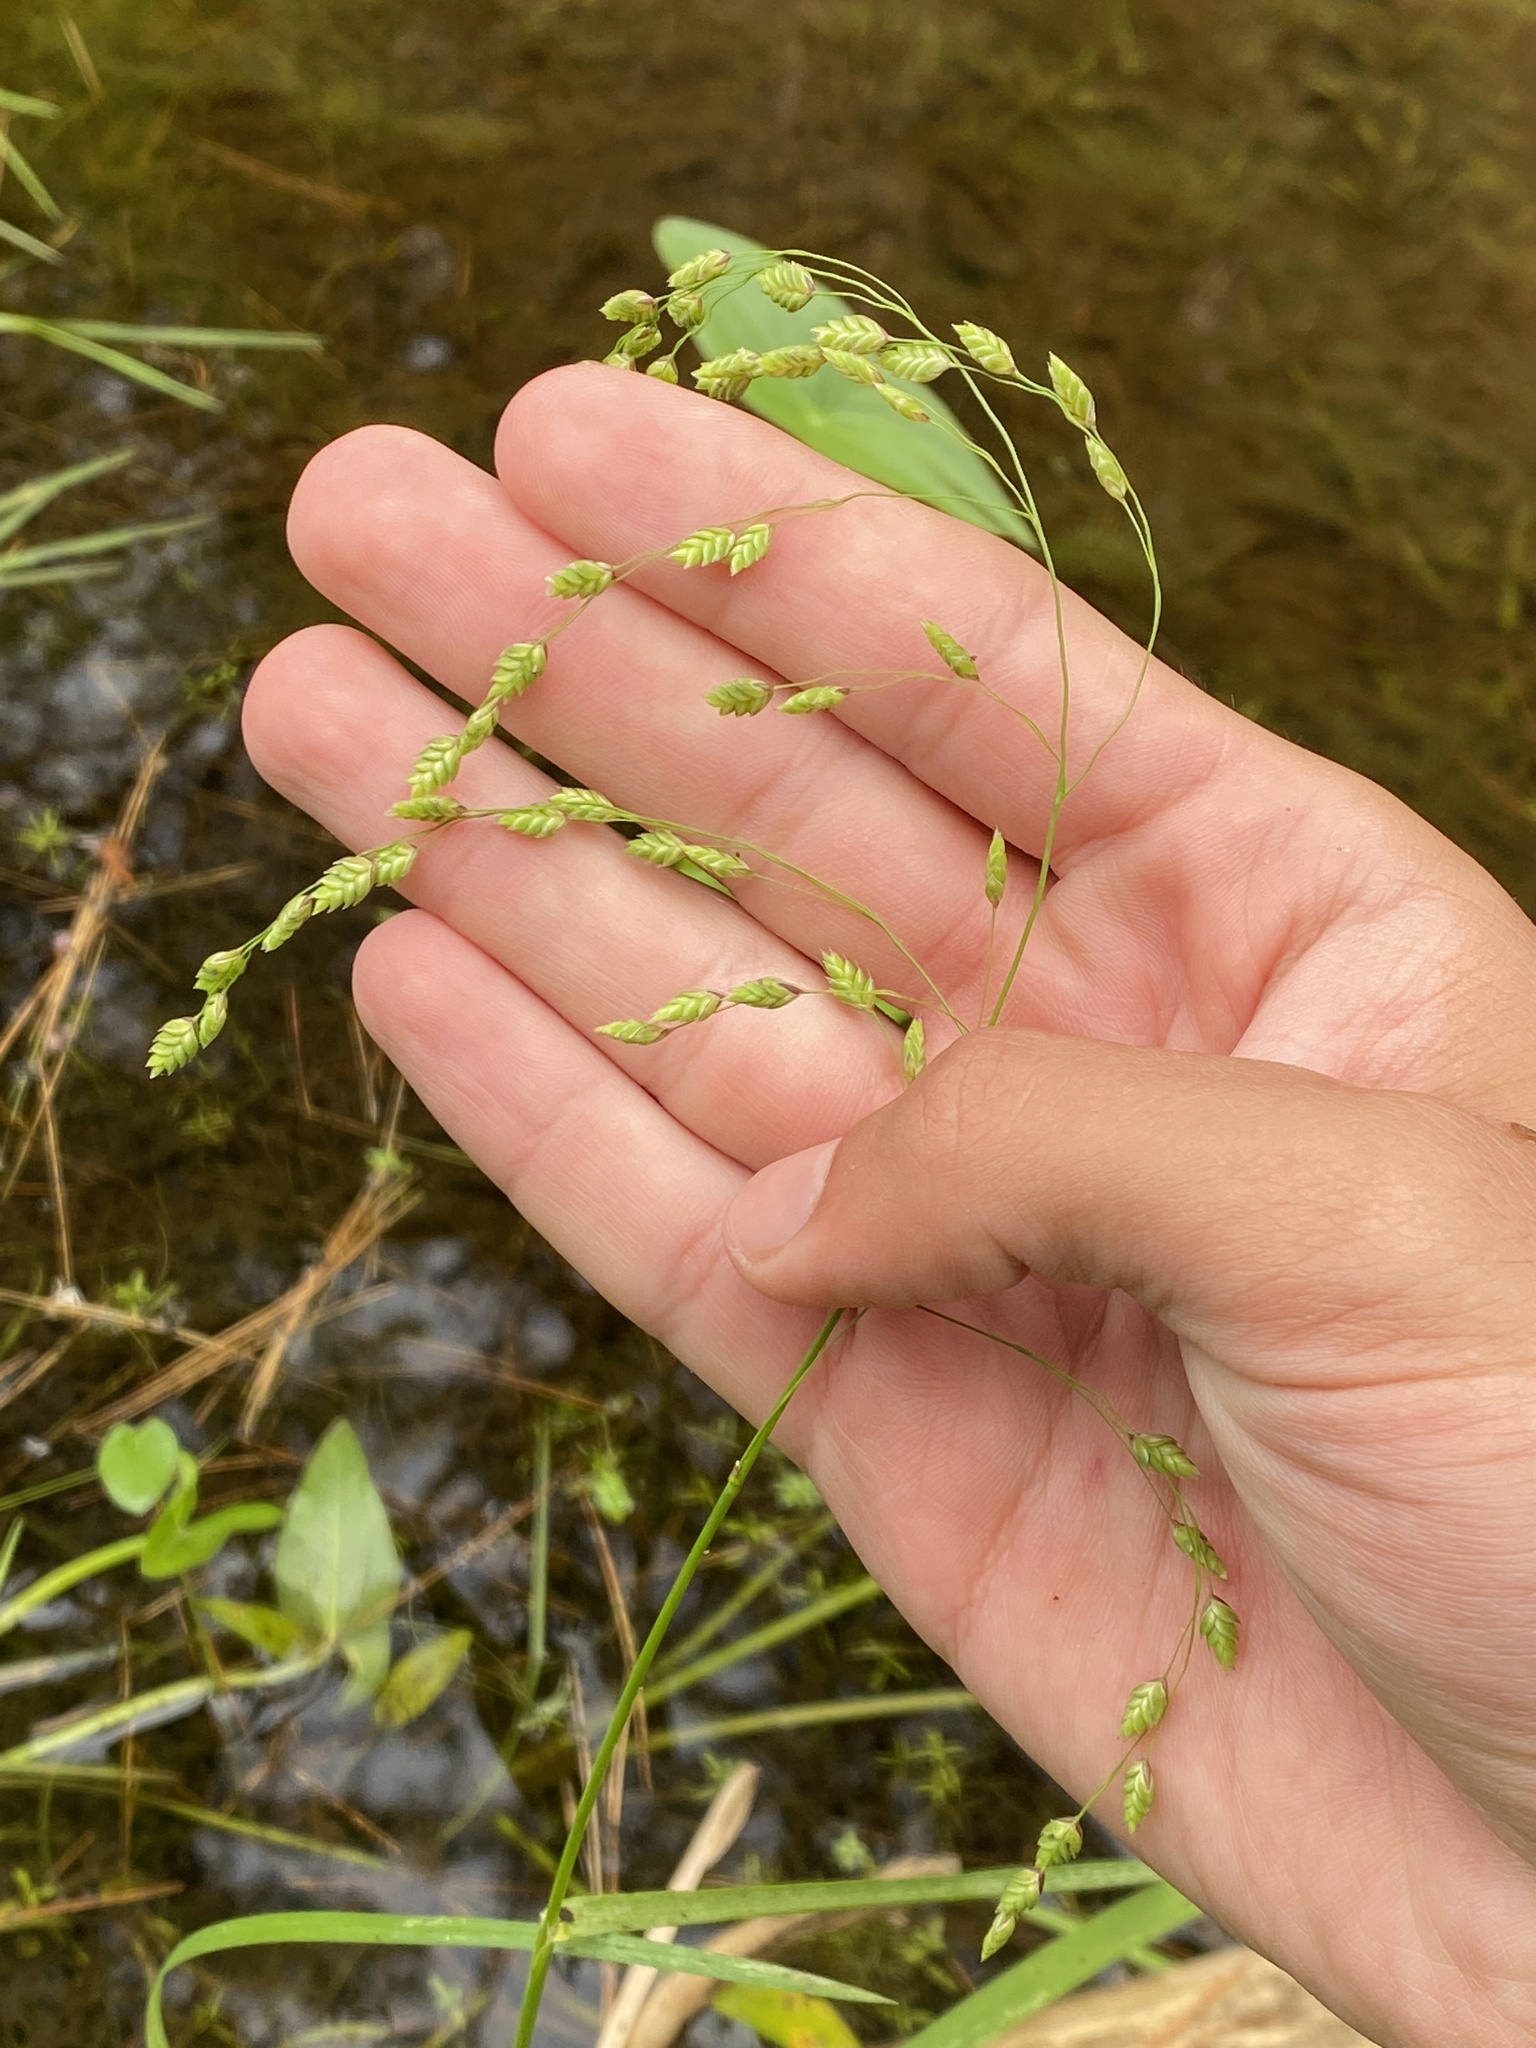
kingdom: Plantae
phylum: Tracheophyta
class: Liliopsida
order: Poales
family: Poaceae
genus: Glyceria
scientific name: Glyceria canadensis
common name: Canada mannagrass
